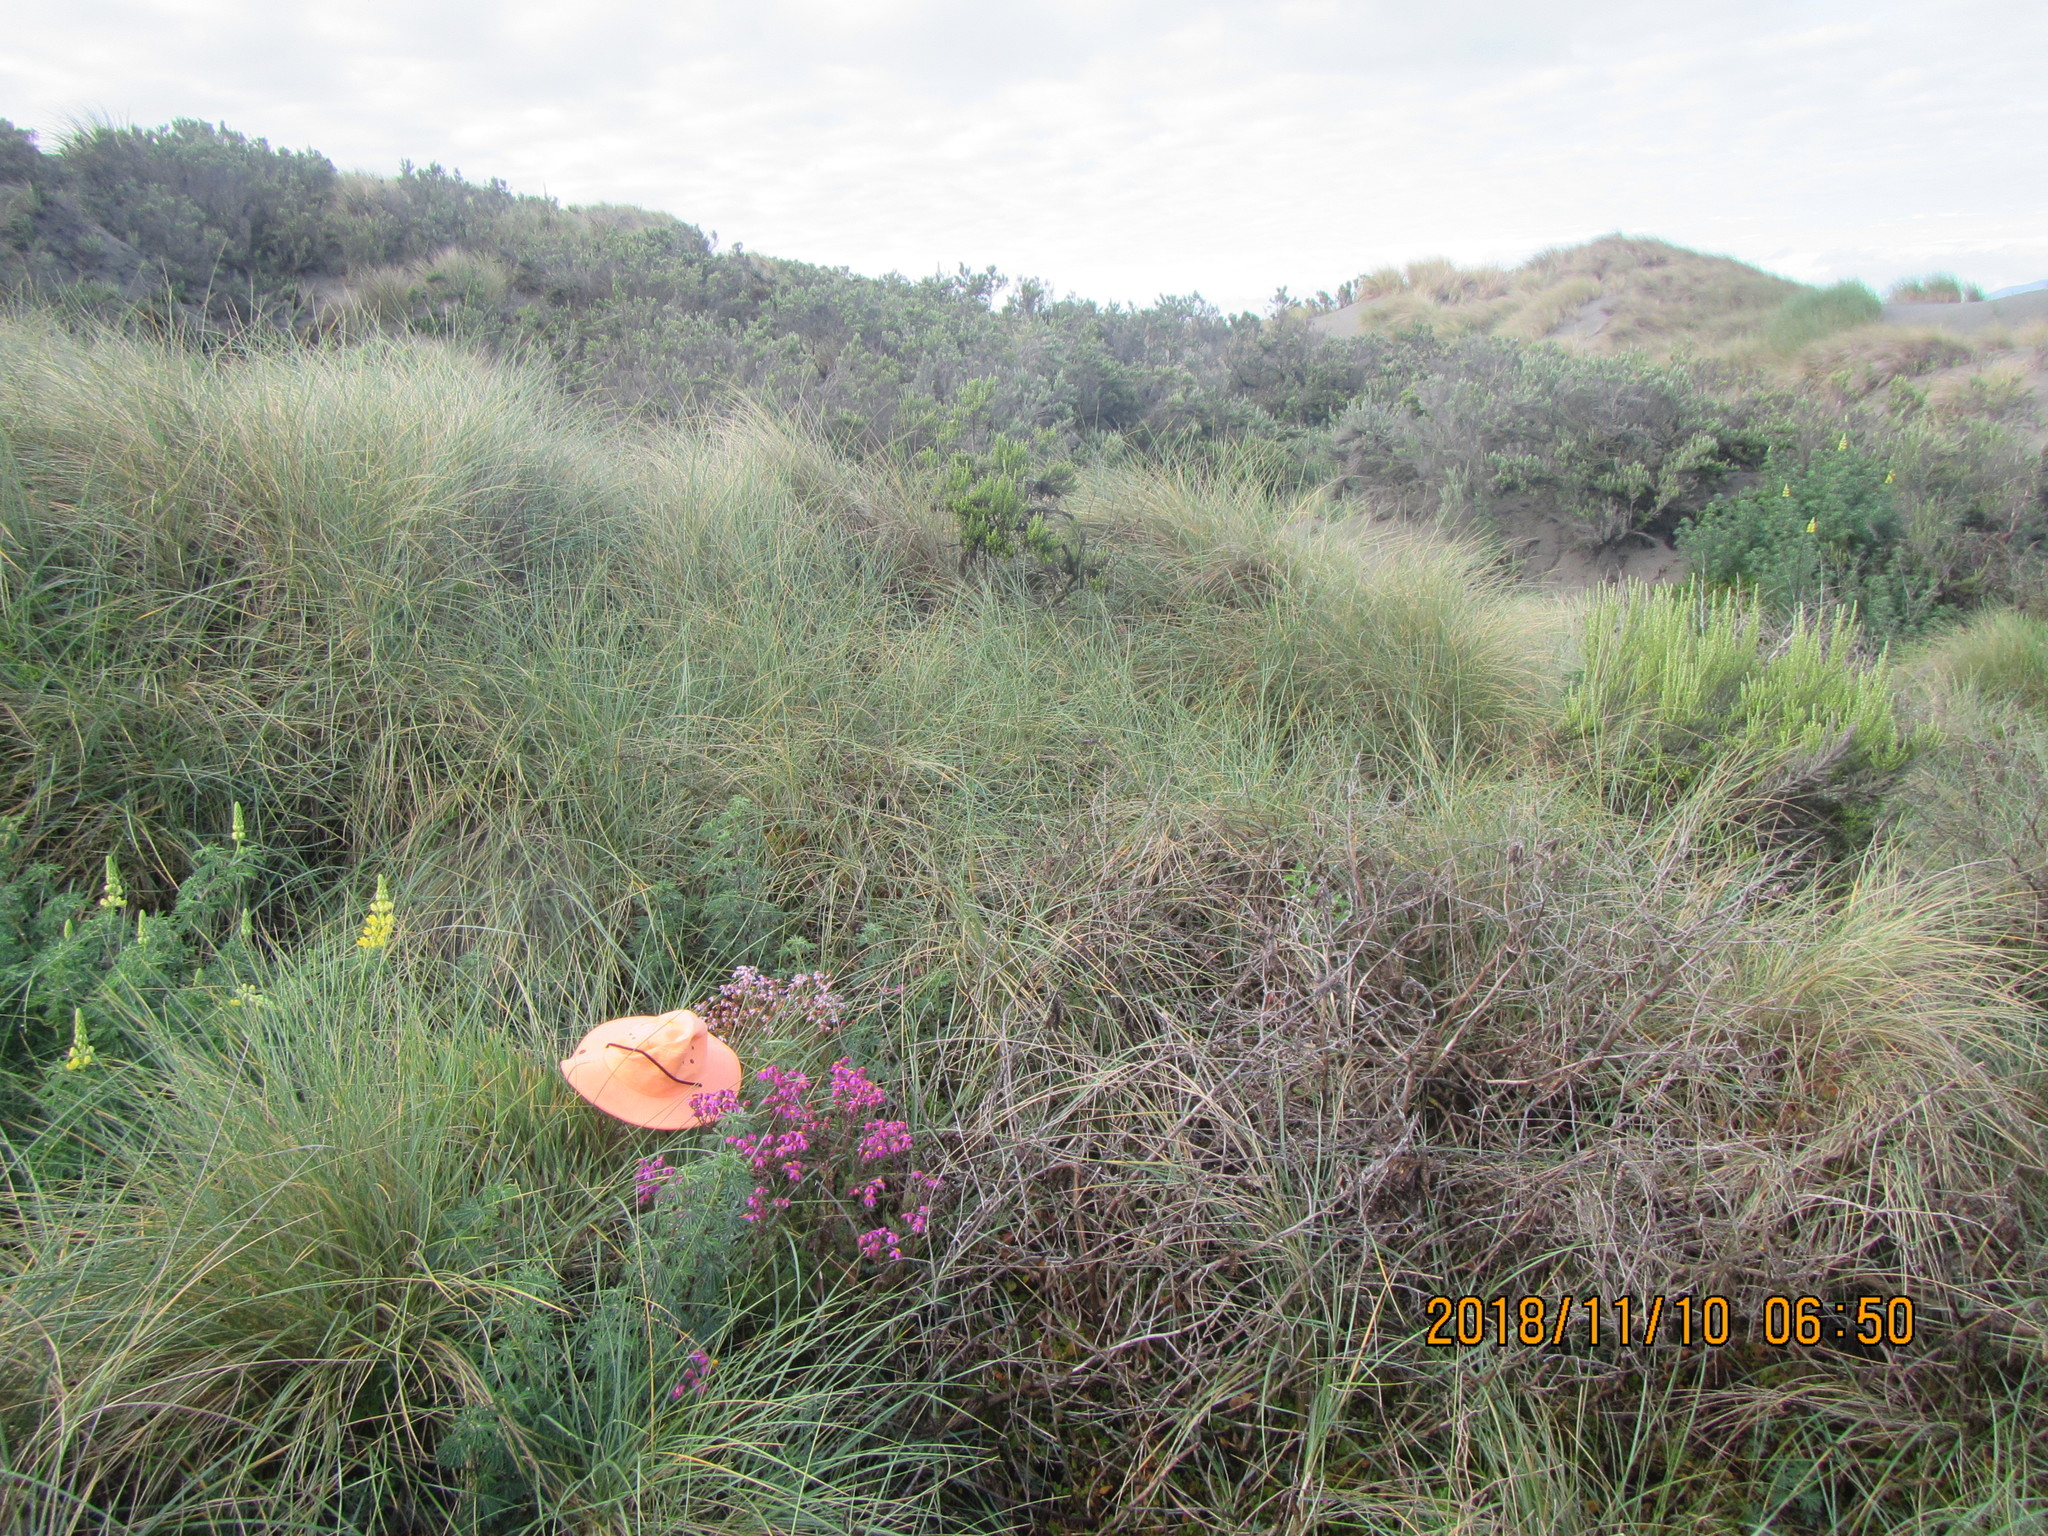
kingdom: Plantae
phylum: Tracheophyta
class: Magnoliopsida
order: Asterales
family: Asteraceae
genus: Senecio
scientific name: Senecio elegans
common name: Purple groundsel
